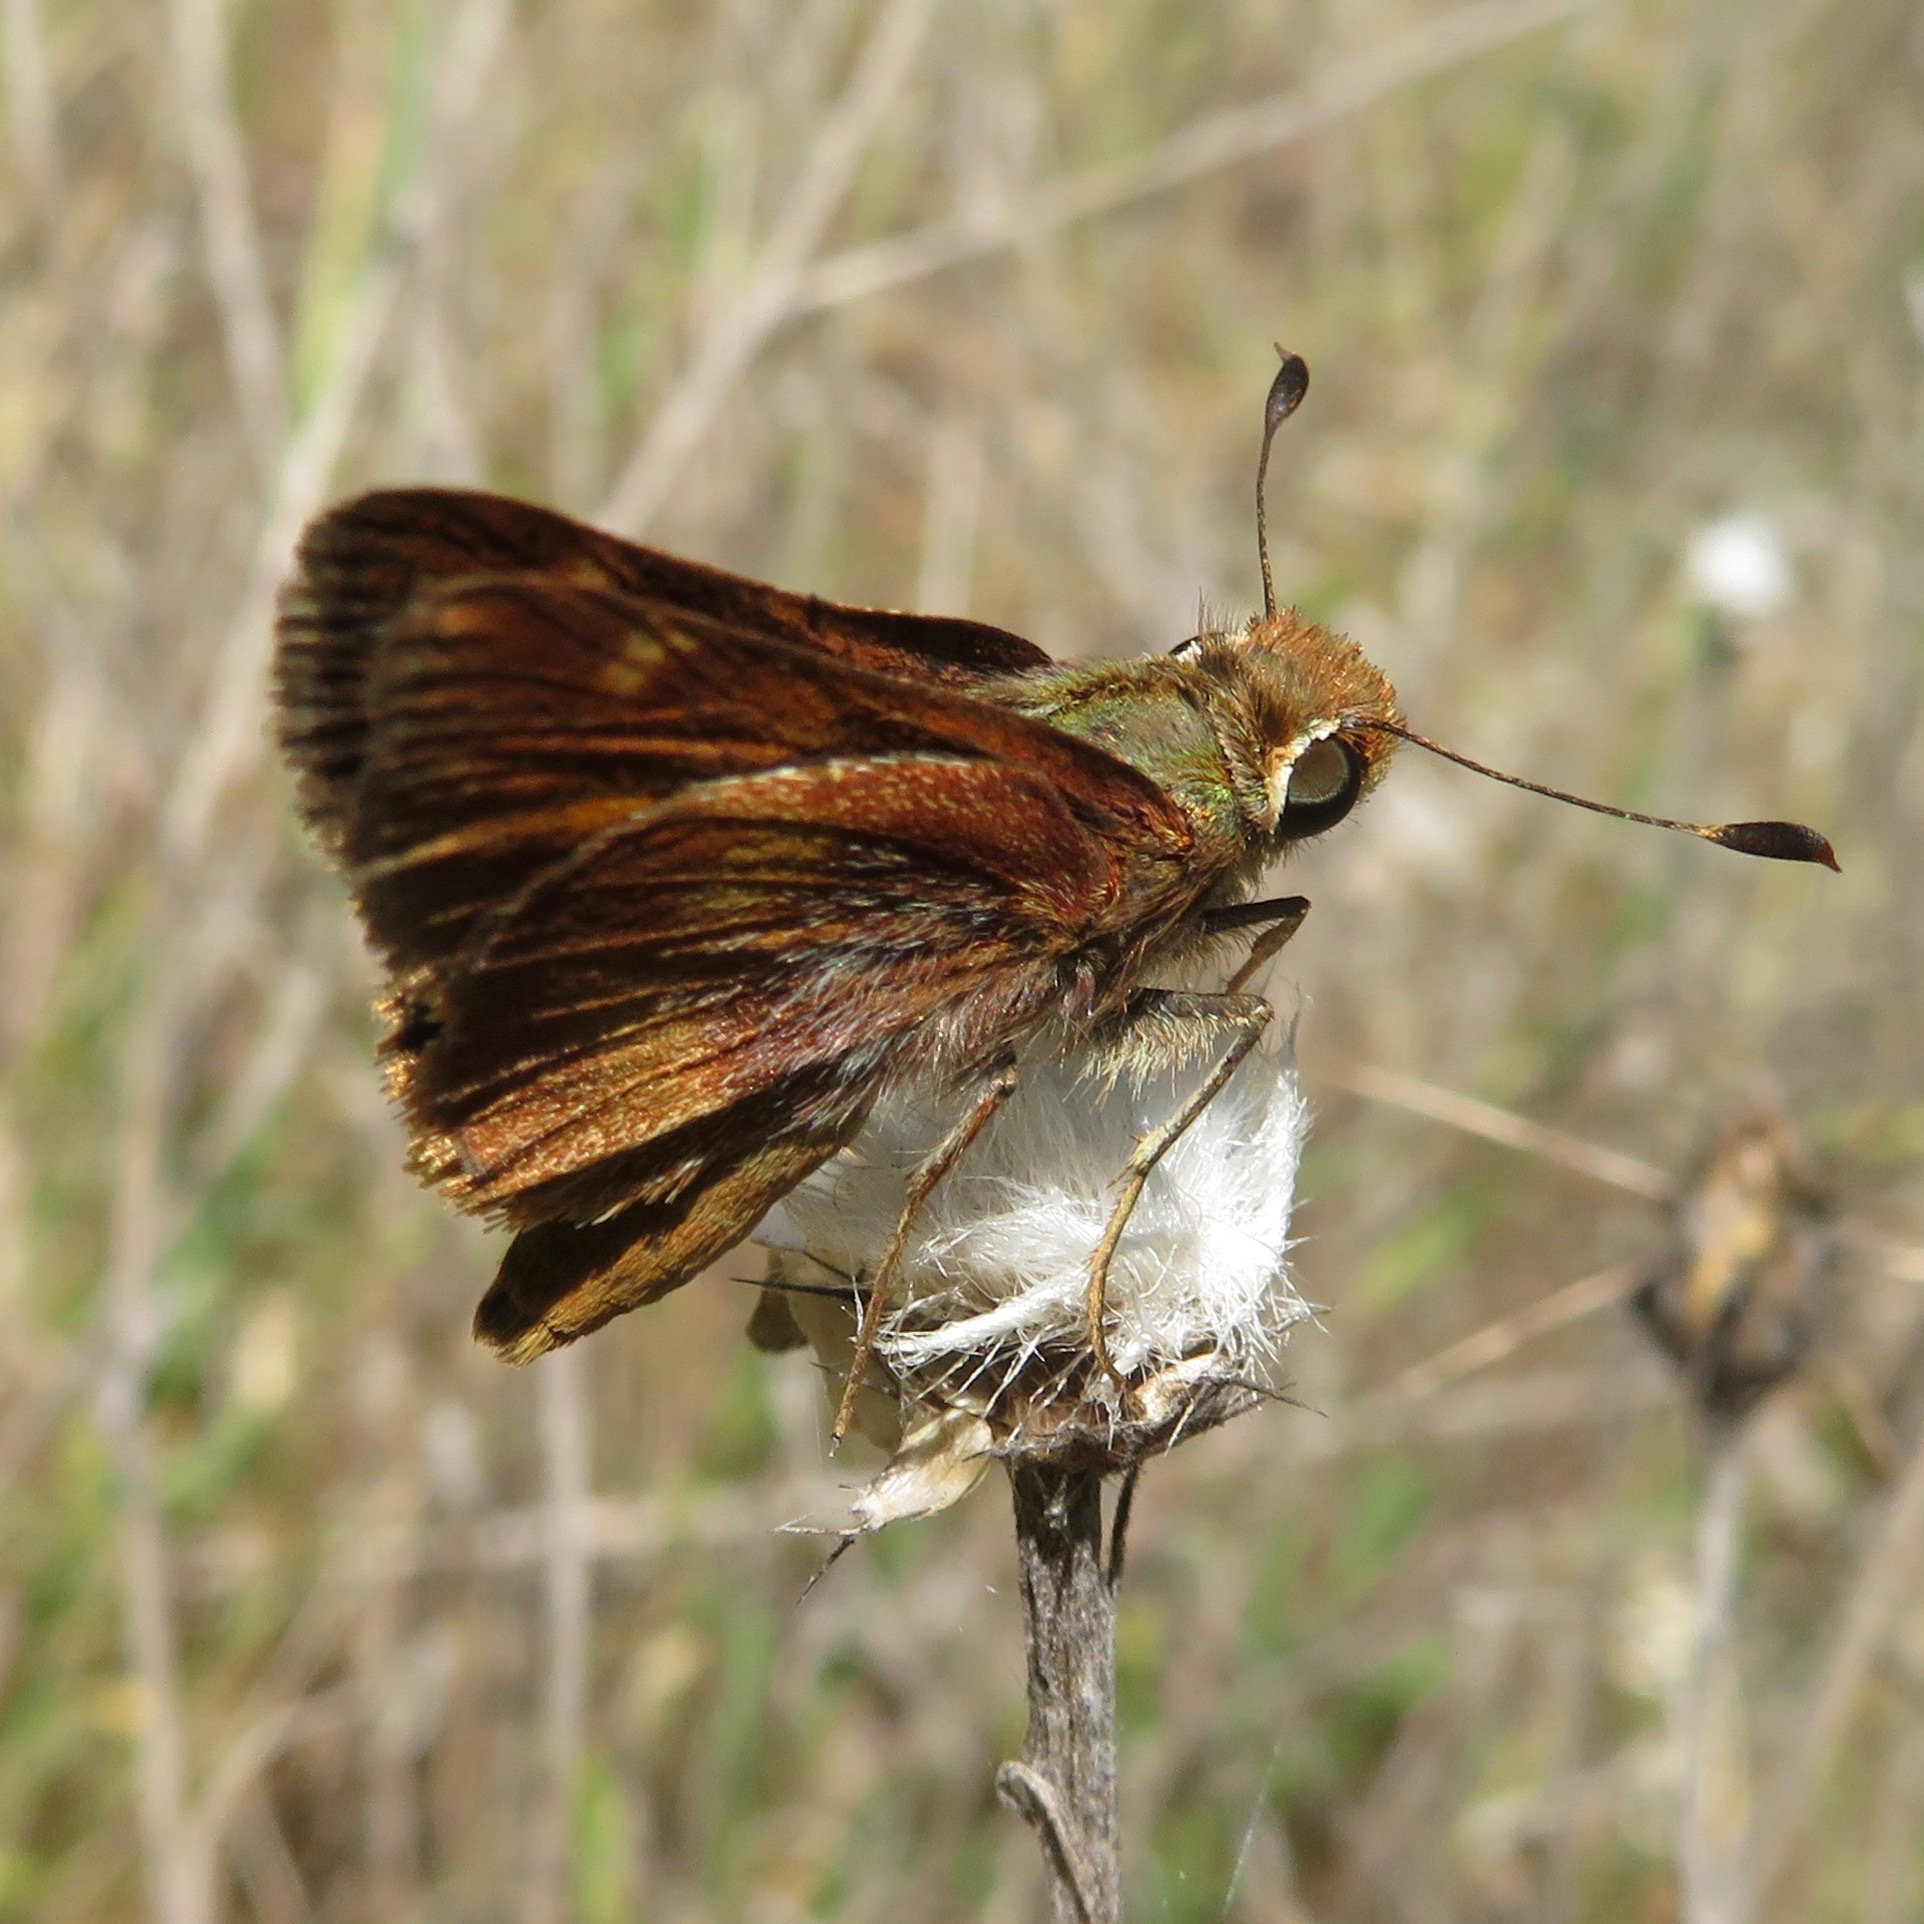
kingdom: Animalia
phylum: Arthropoda
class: Insecta
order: Lepidoptera
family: Hesperiidae
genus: Lon
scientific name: Lon melane
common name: Umber skipper
